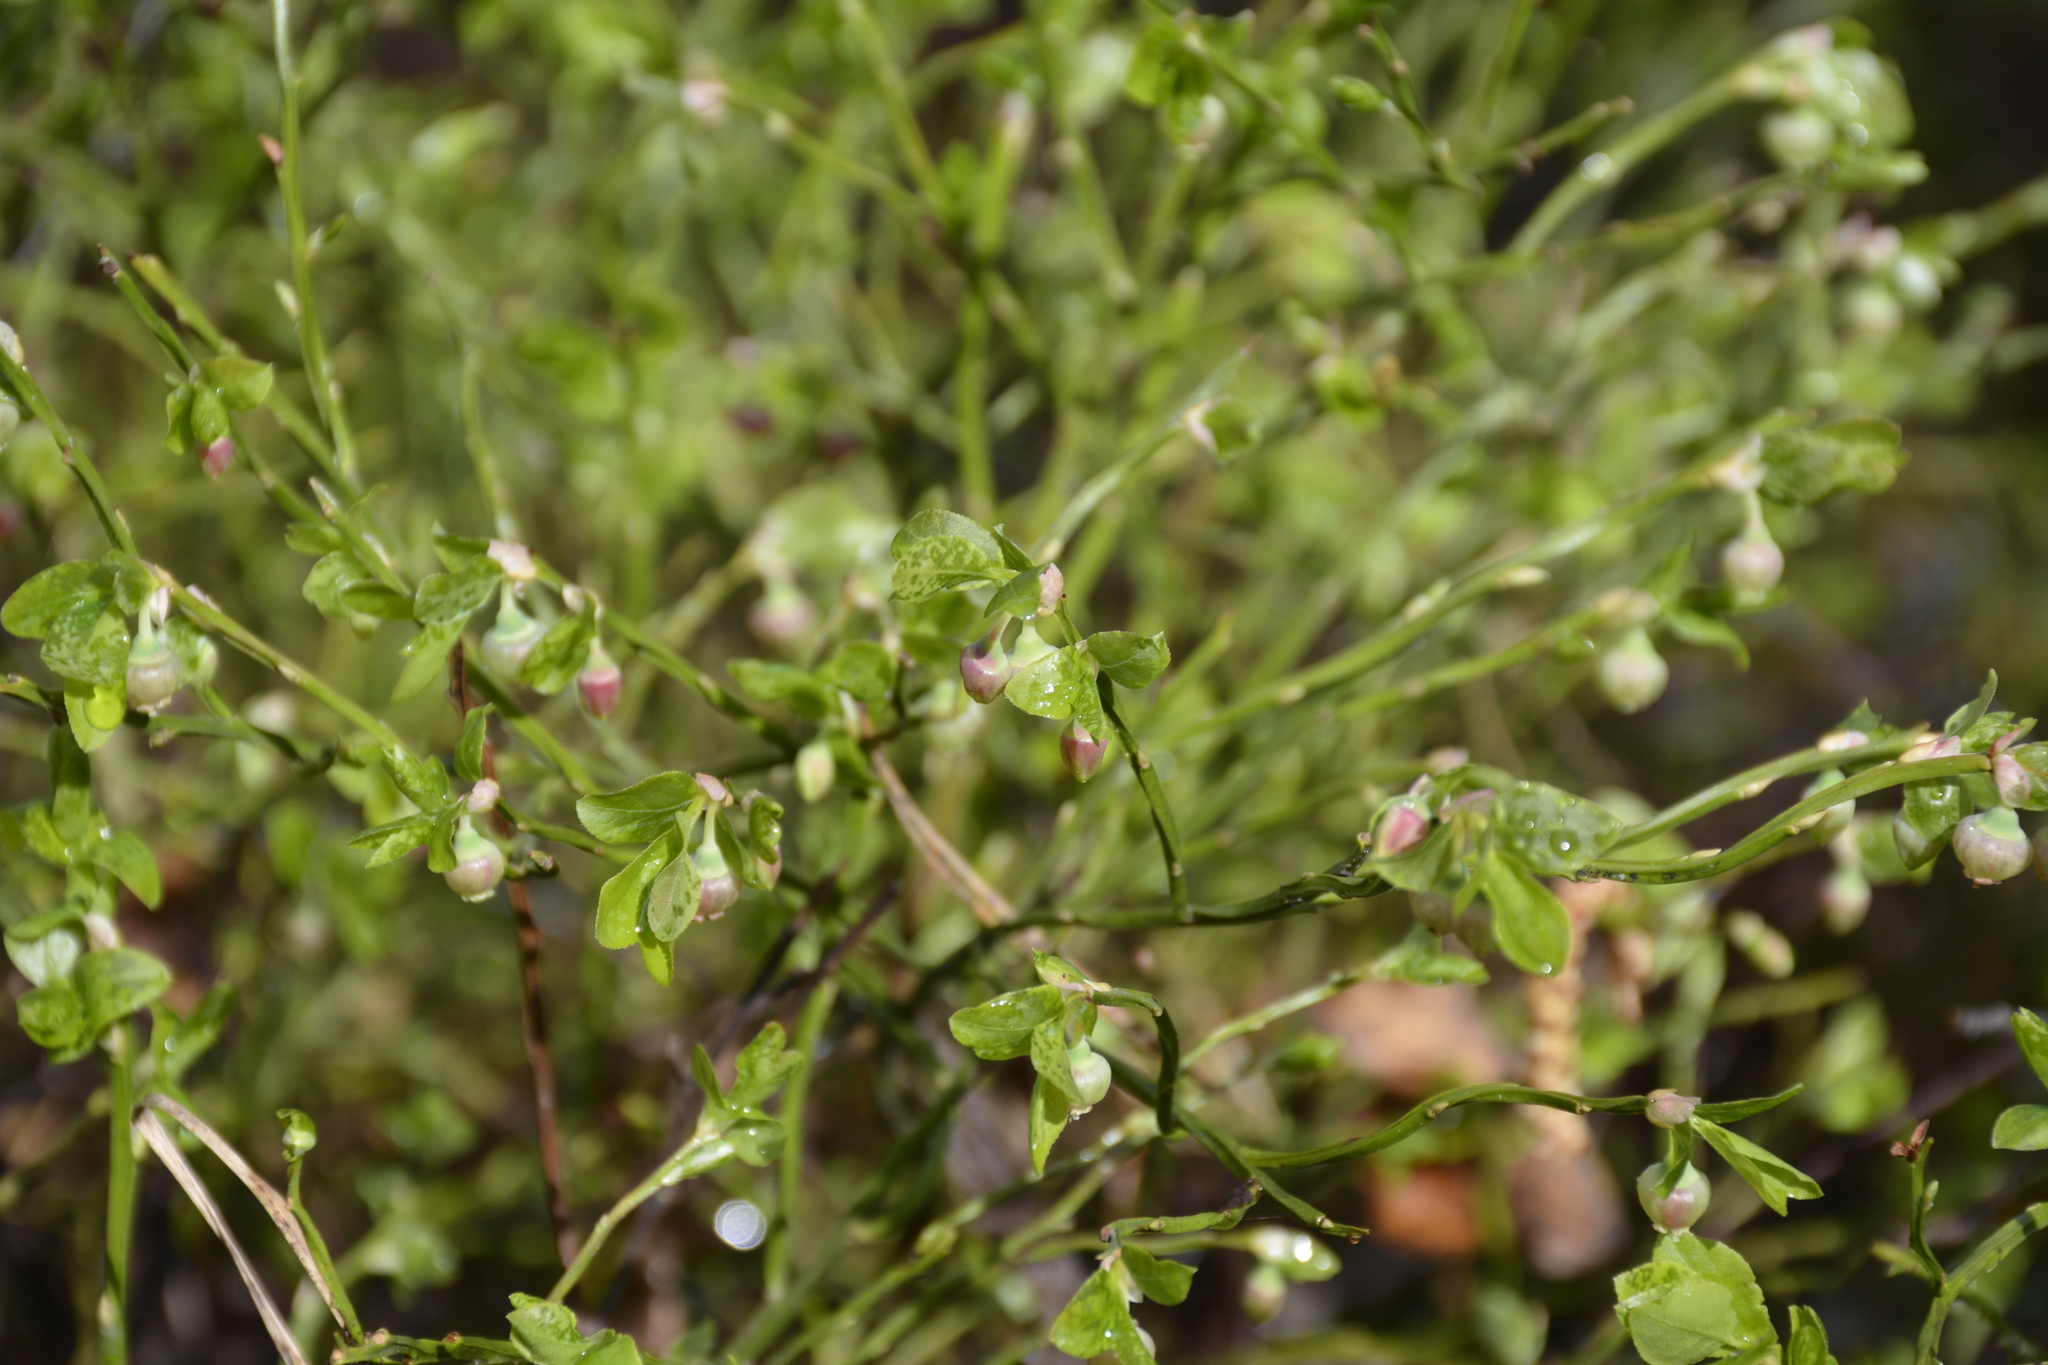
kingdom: Plantae
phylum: Tracheophyta
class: Magnoliopsida
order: Ericales
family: Ericaceae
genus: Vaccinium
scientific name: Vaccinium myrtillus
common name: Bilberry
